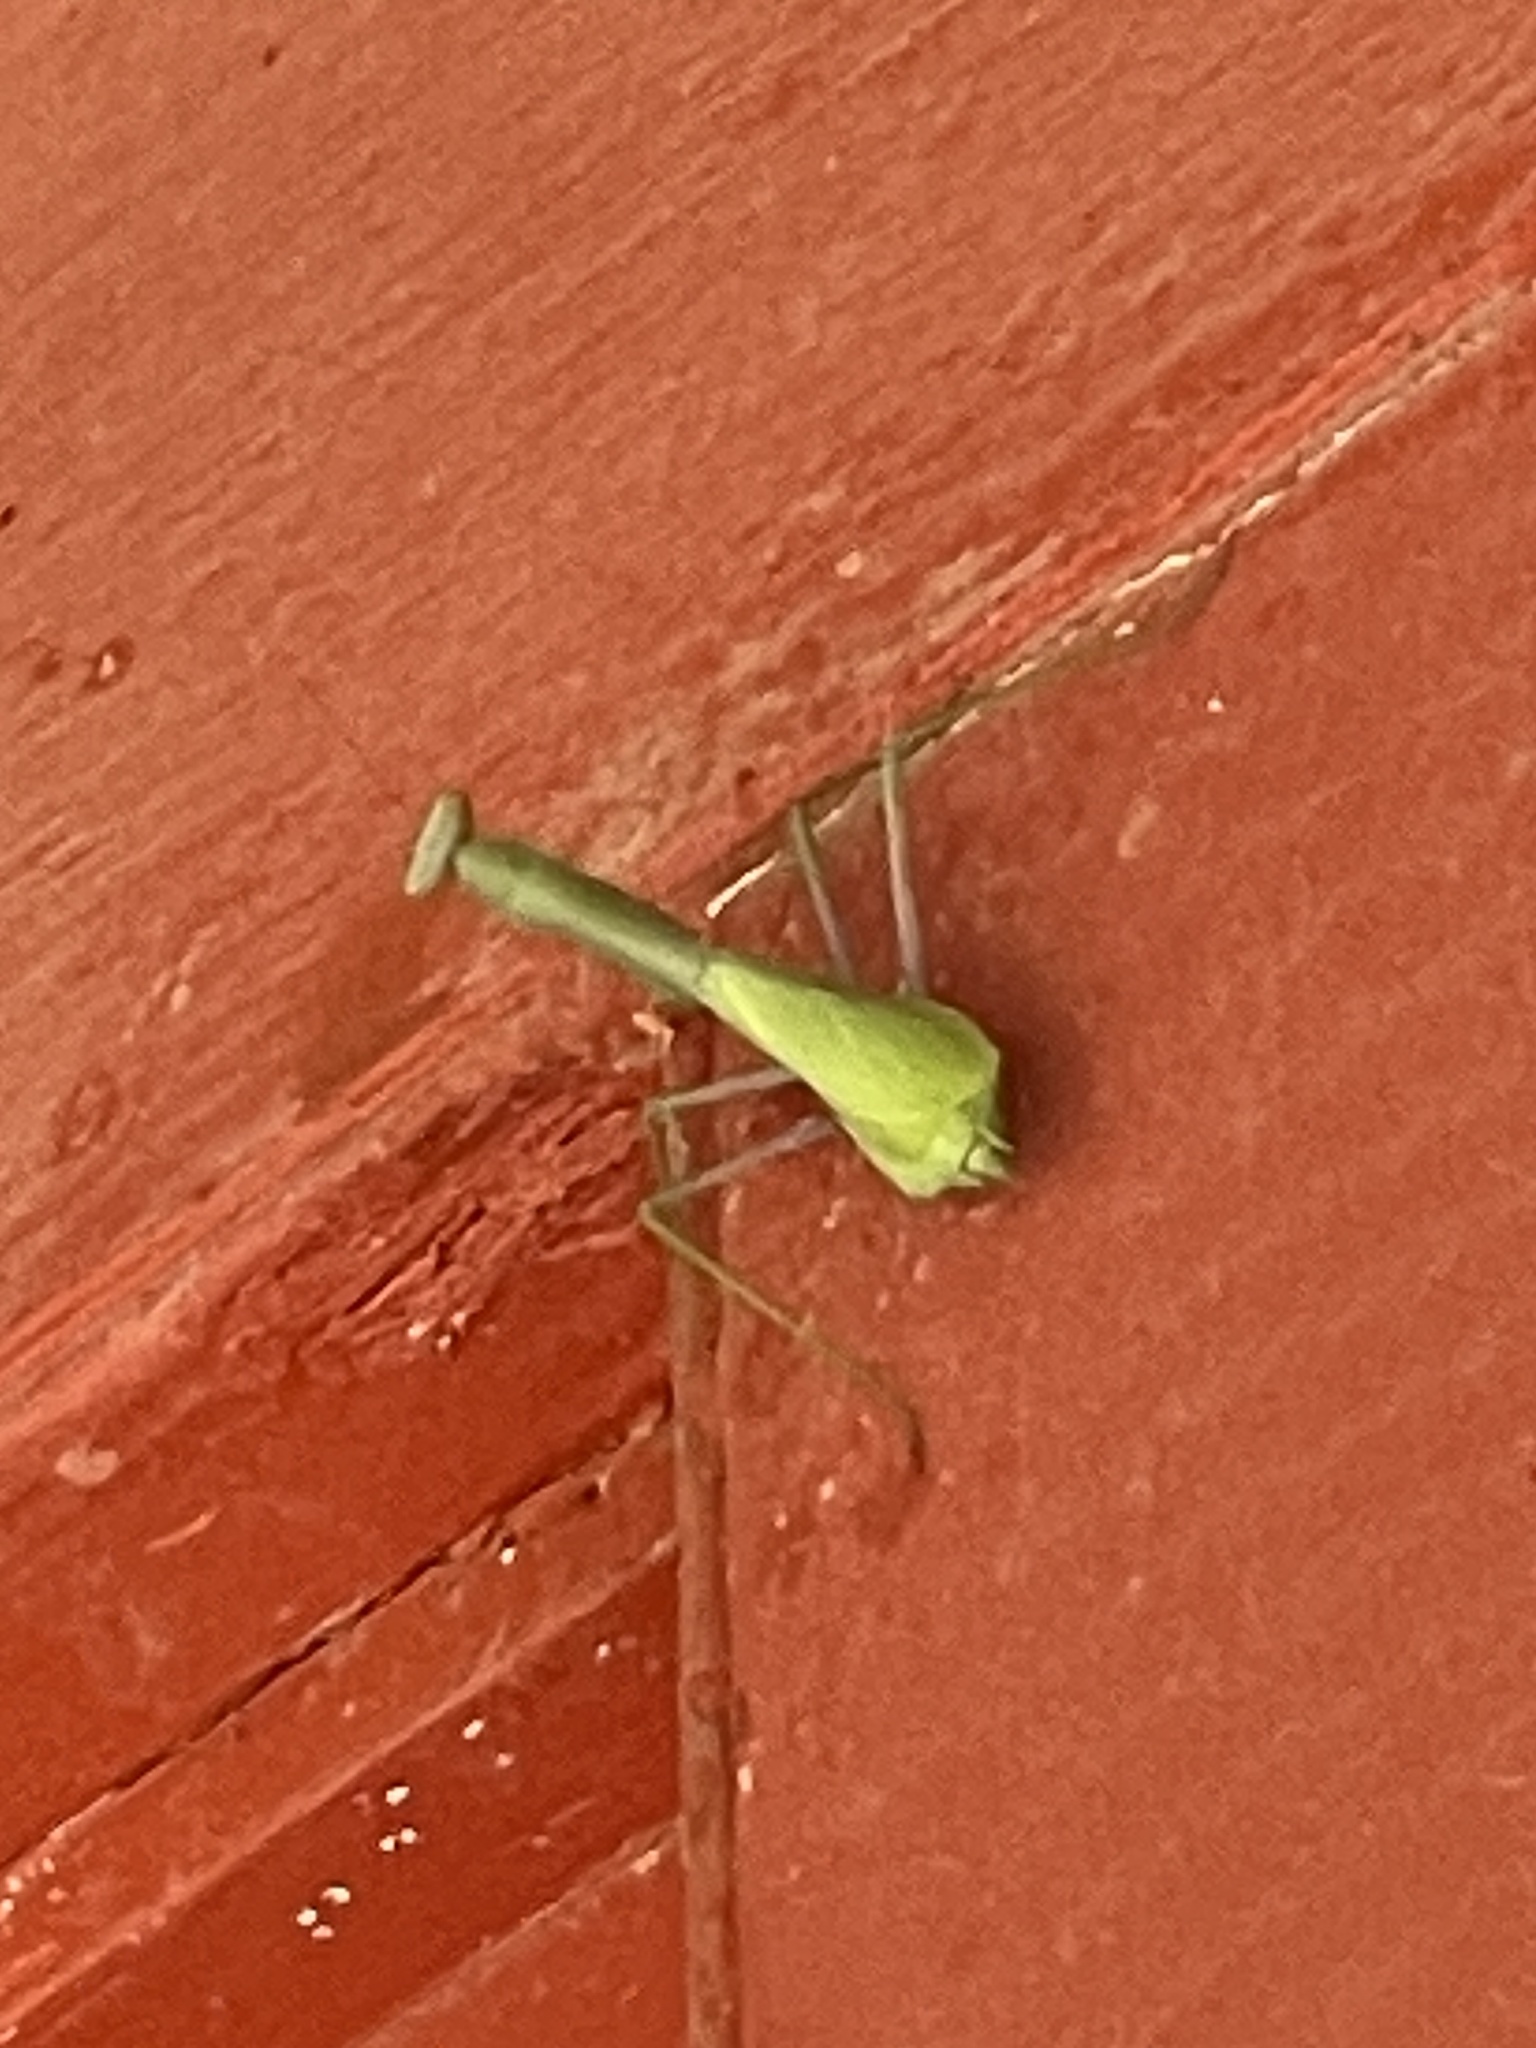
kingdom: Animalia
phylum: Arthropoda
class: Insecta
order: Mantodea
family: Mantidae
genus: Stagmomantis
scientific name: Stagmomantis limbata
